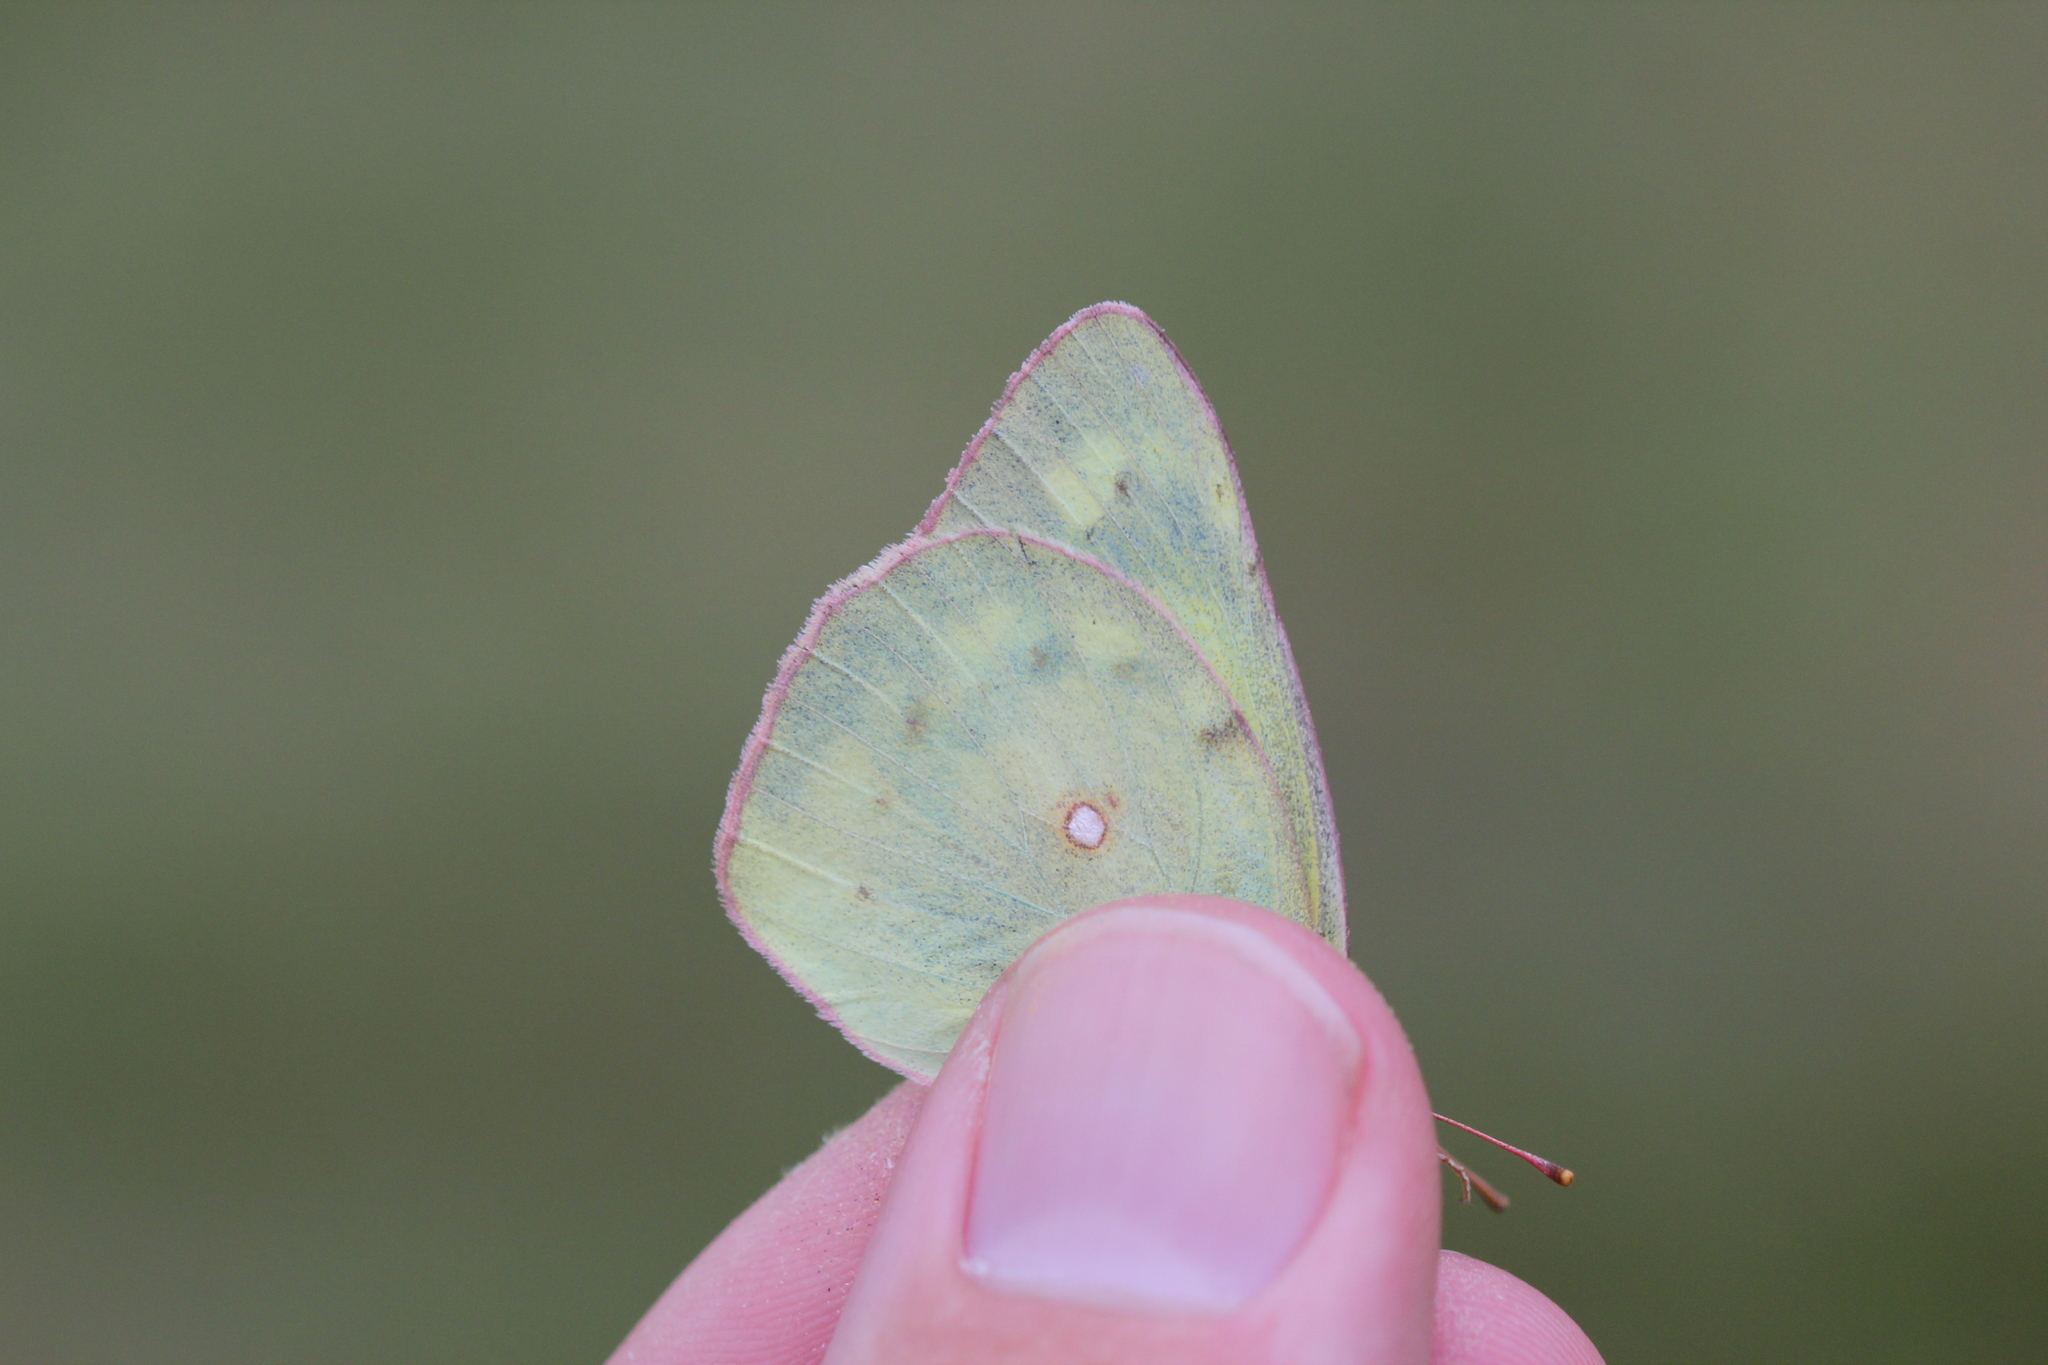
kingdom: Animalia
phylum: Arthropoda
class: Insecta
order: Lepidoptera
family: Pieridae
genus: Colias
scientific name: Colias eurytheme
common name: Alfalfa butterfly
